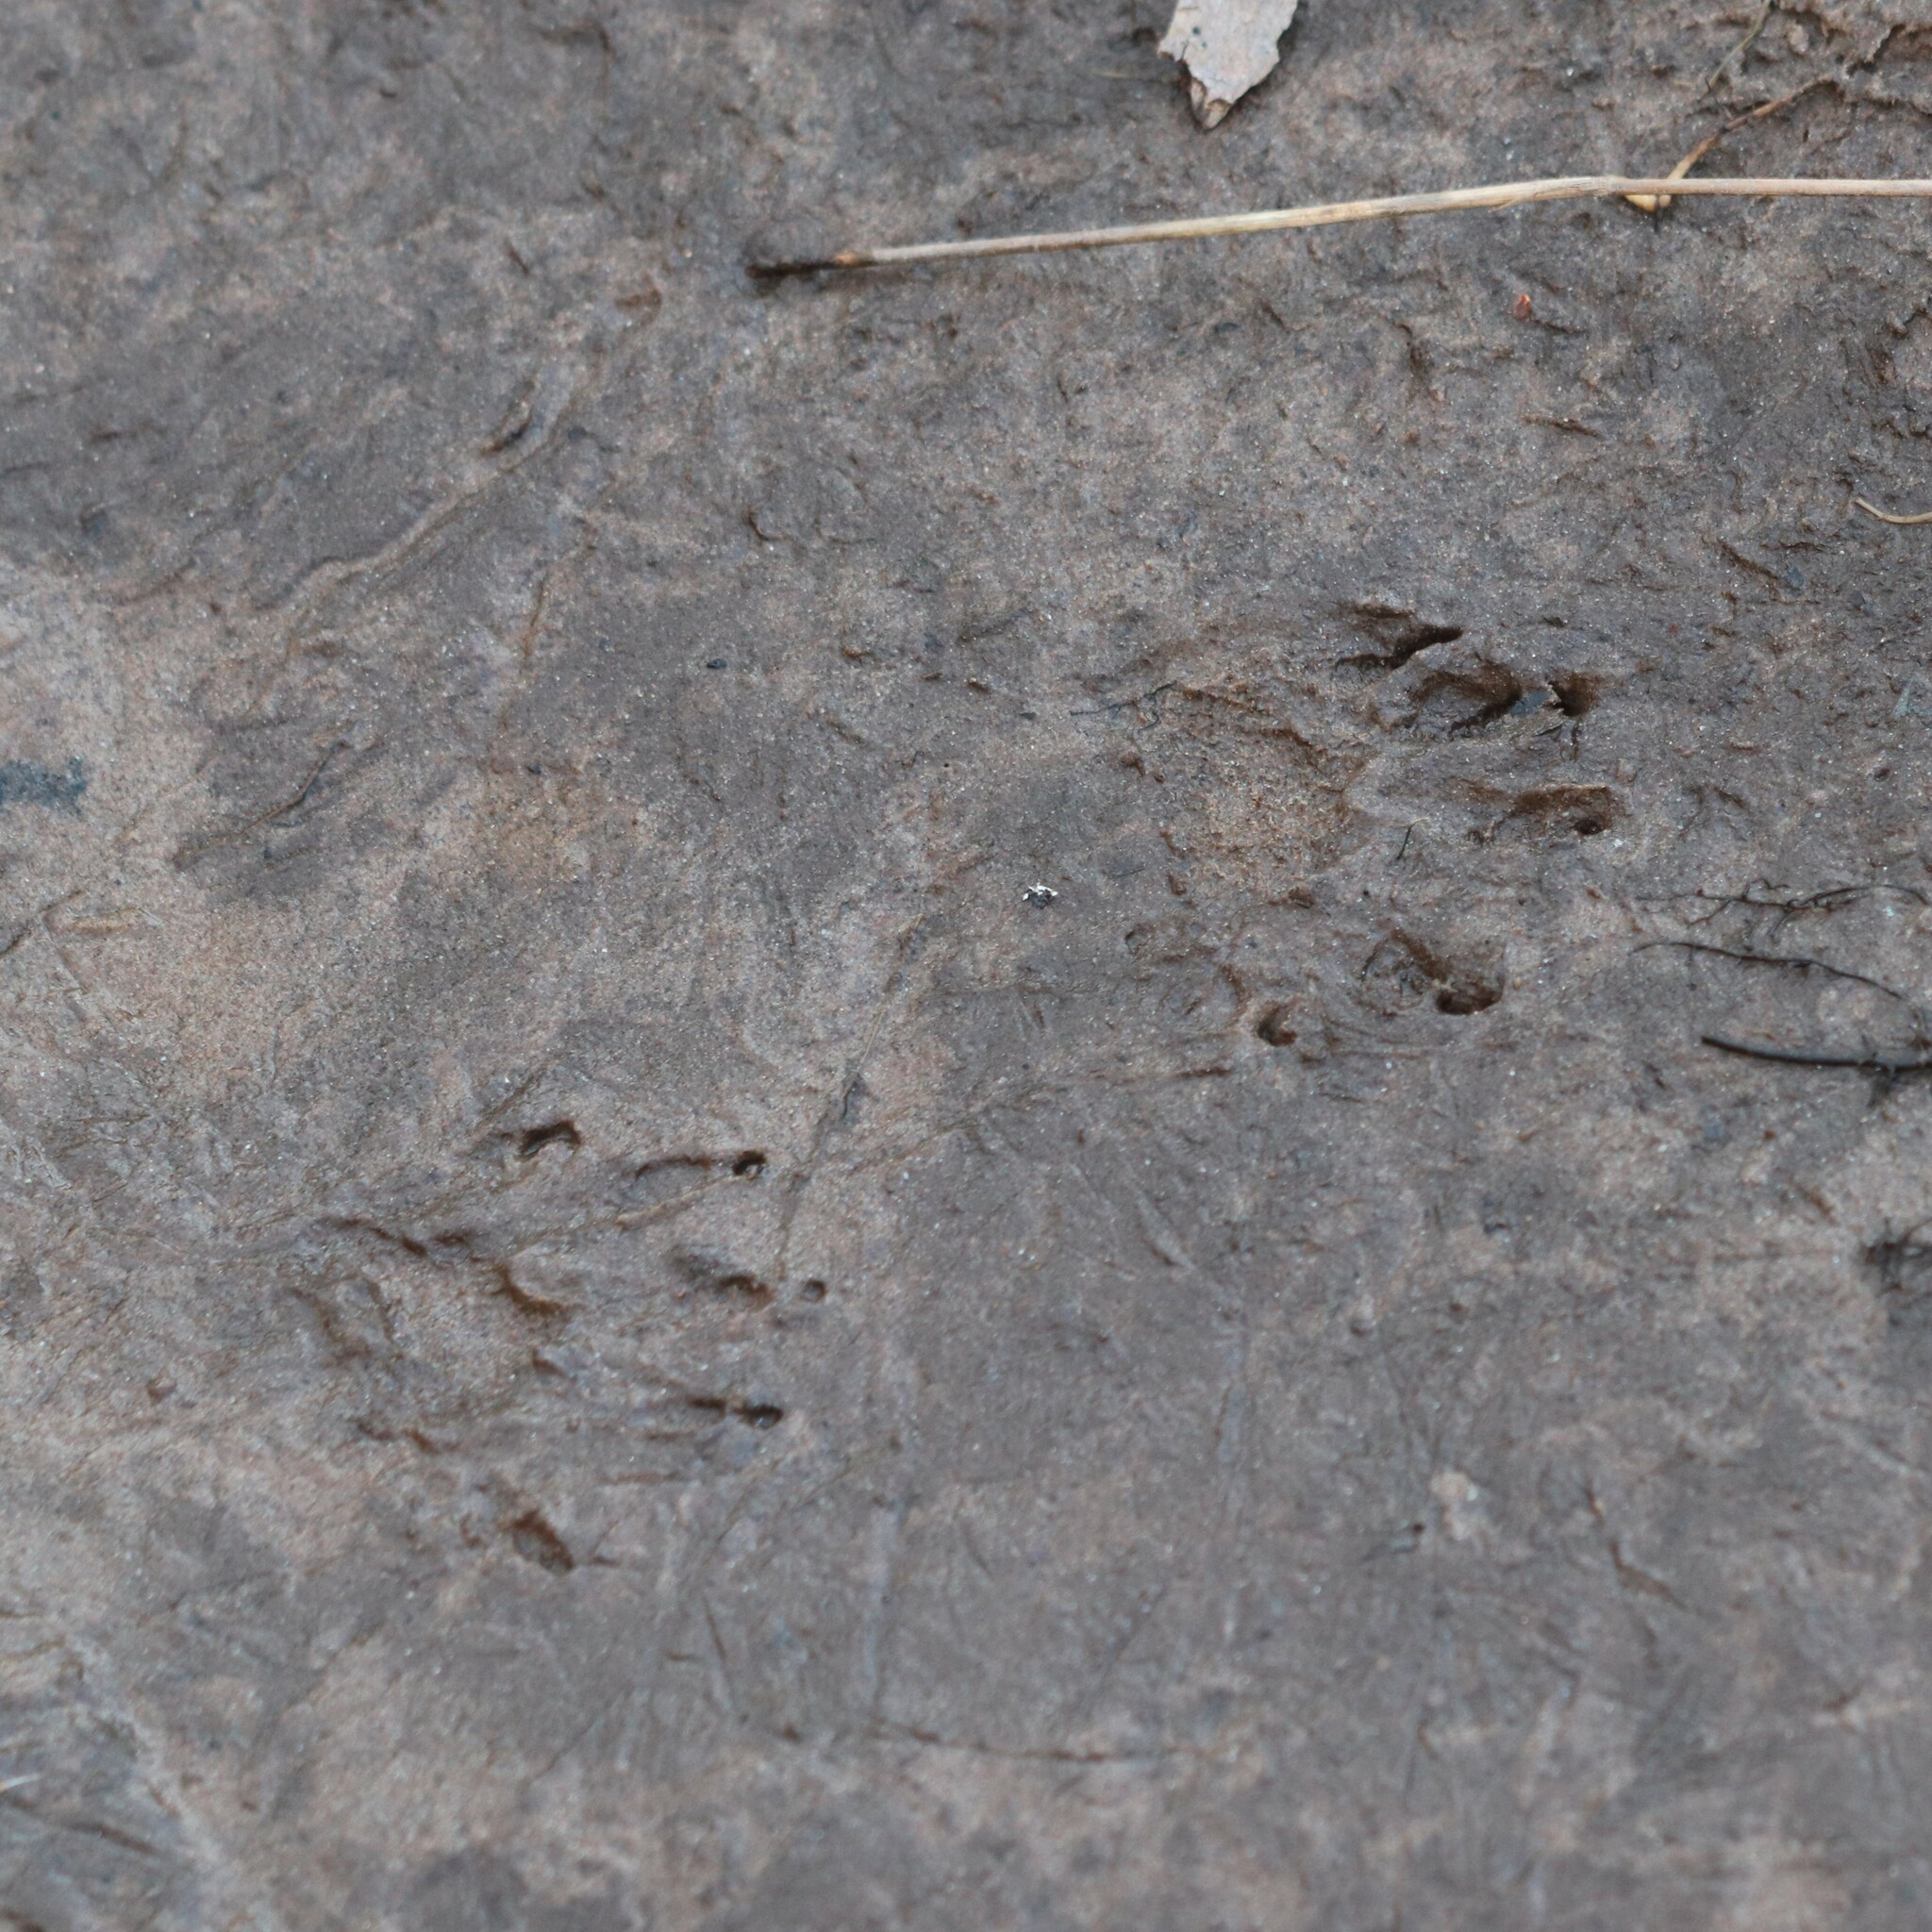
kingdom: Animalia
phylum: Chordata
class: Mammalia
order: Carnivora
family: Procyonidae
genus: Procyon
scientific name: Procyon lotor
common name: Raccoon
